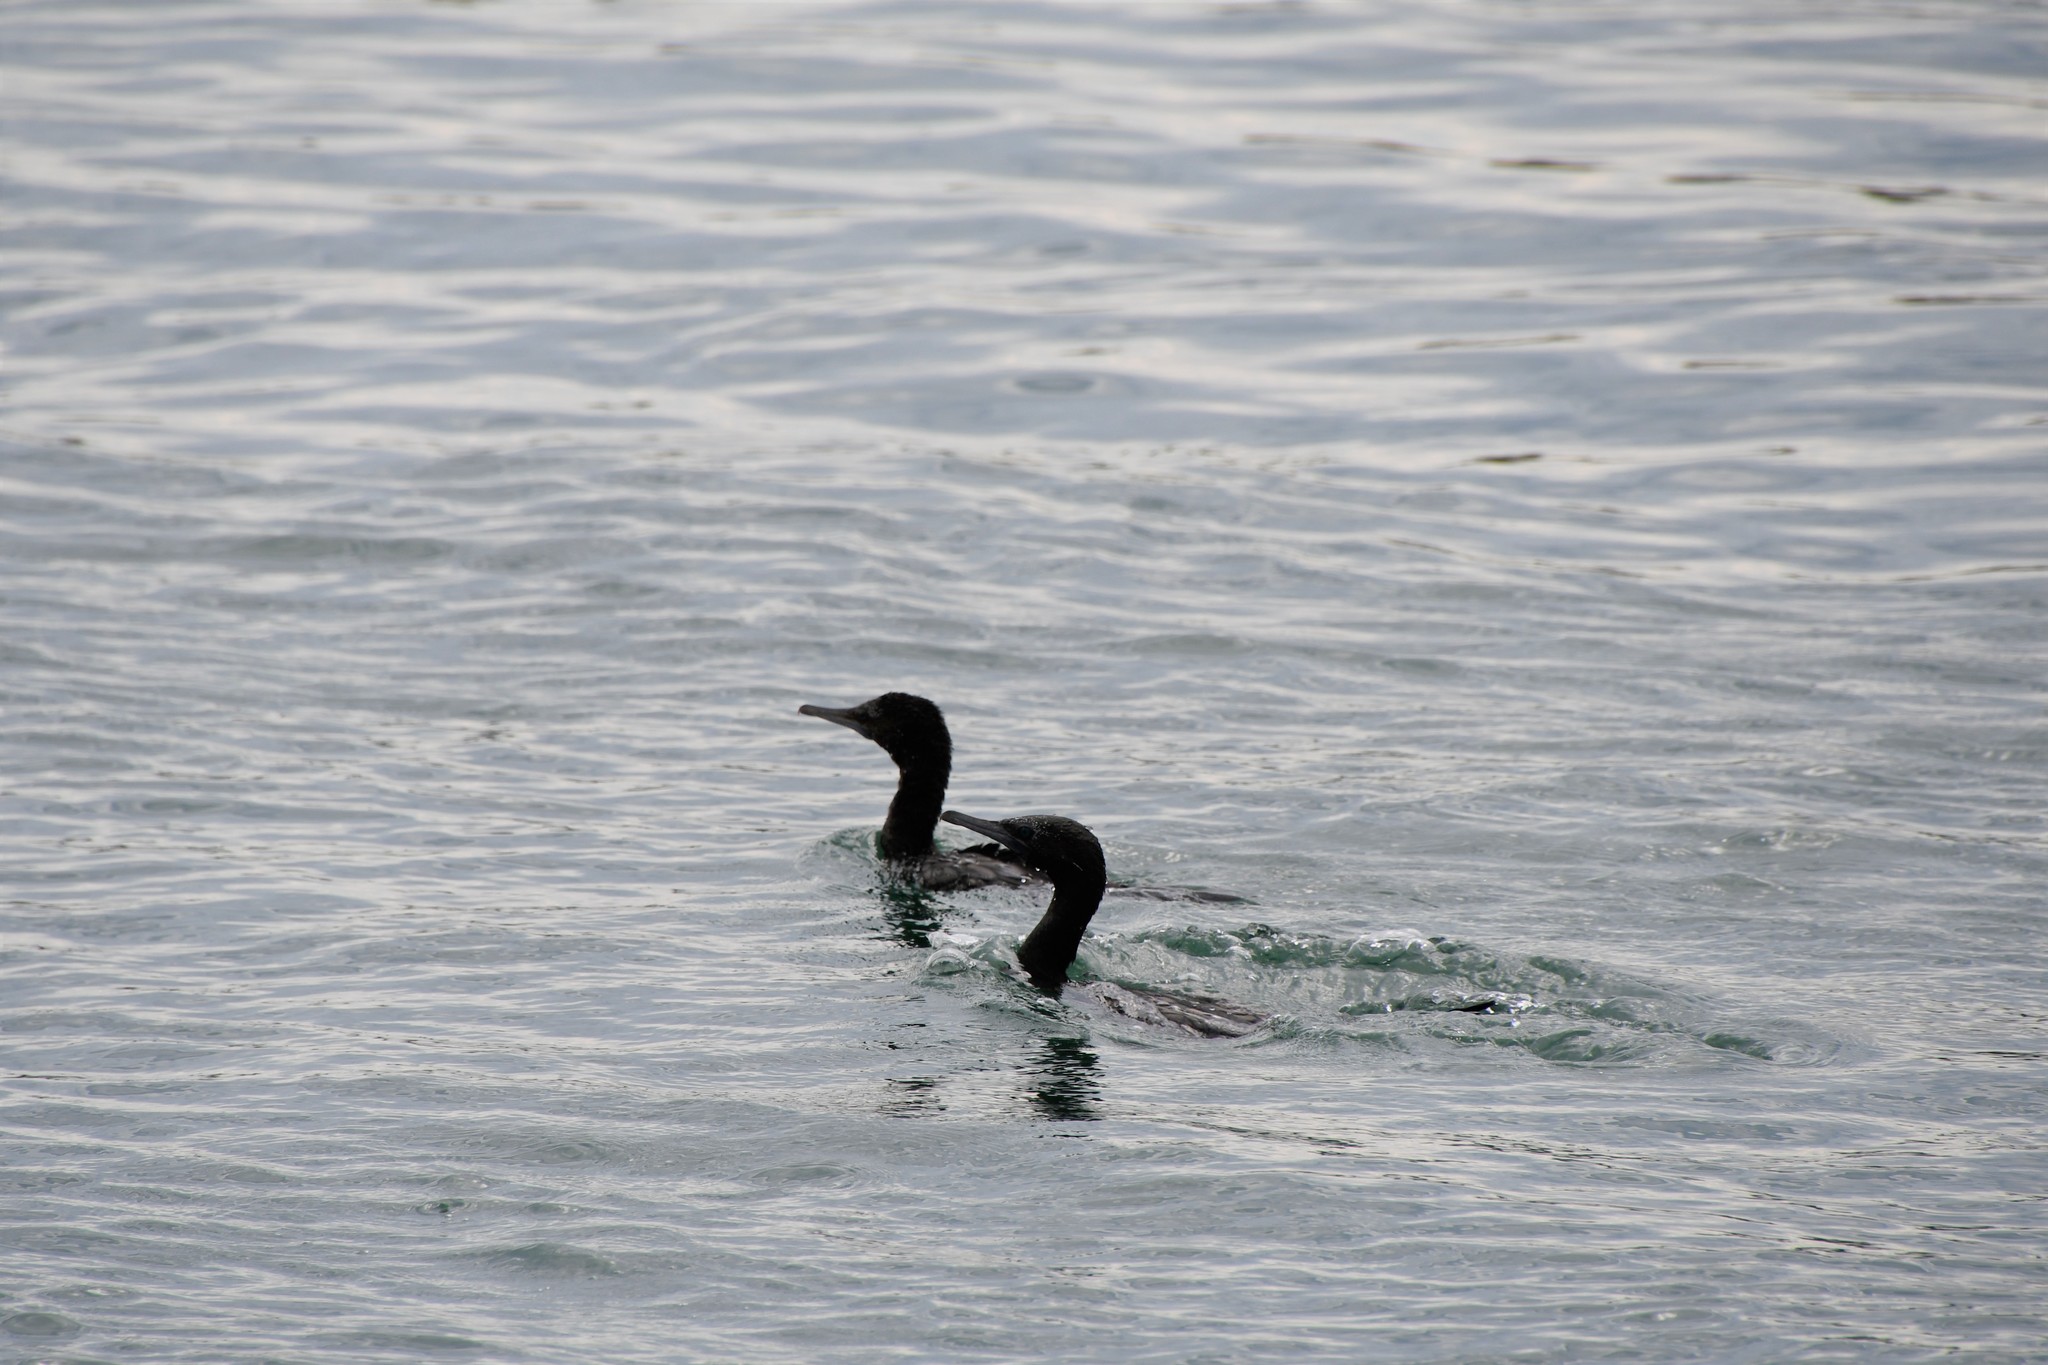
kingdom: Animalia
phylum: Chordata
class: Aves
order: Suliformes
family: Phalacrocoracidae
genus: Phalacrocorax
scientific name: Phalacrocorax sulcirostris
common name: Little black cormorant
